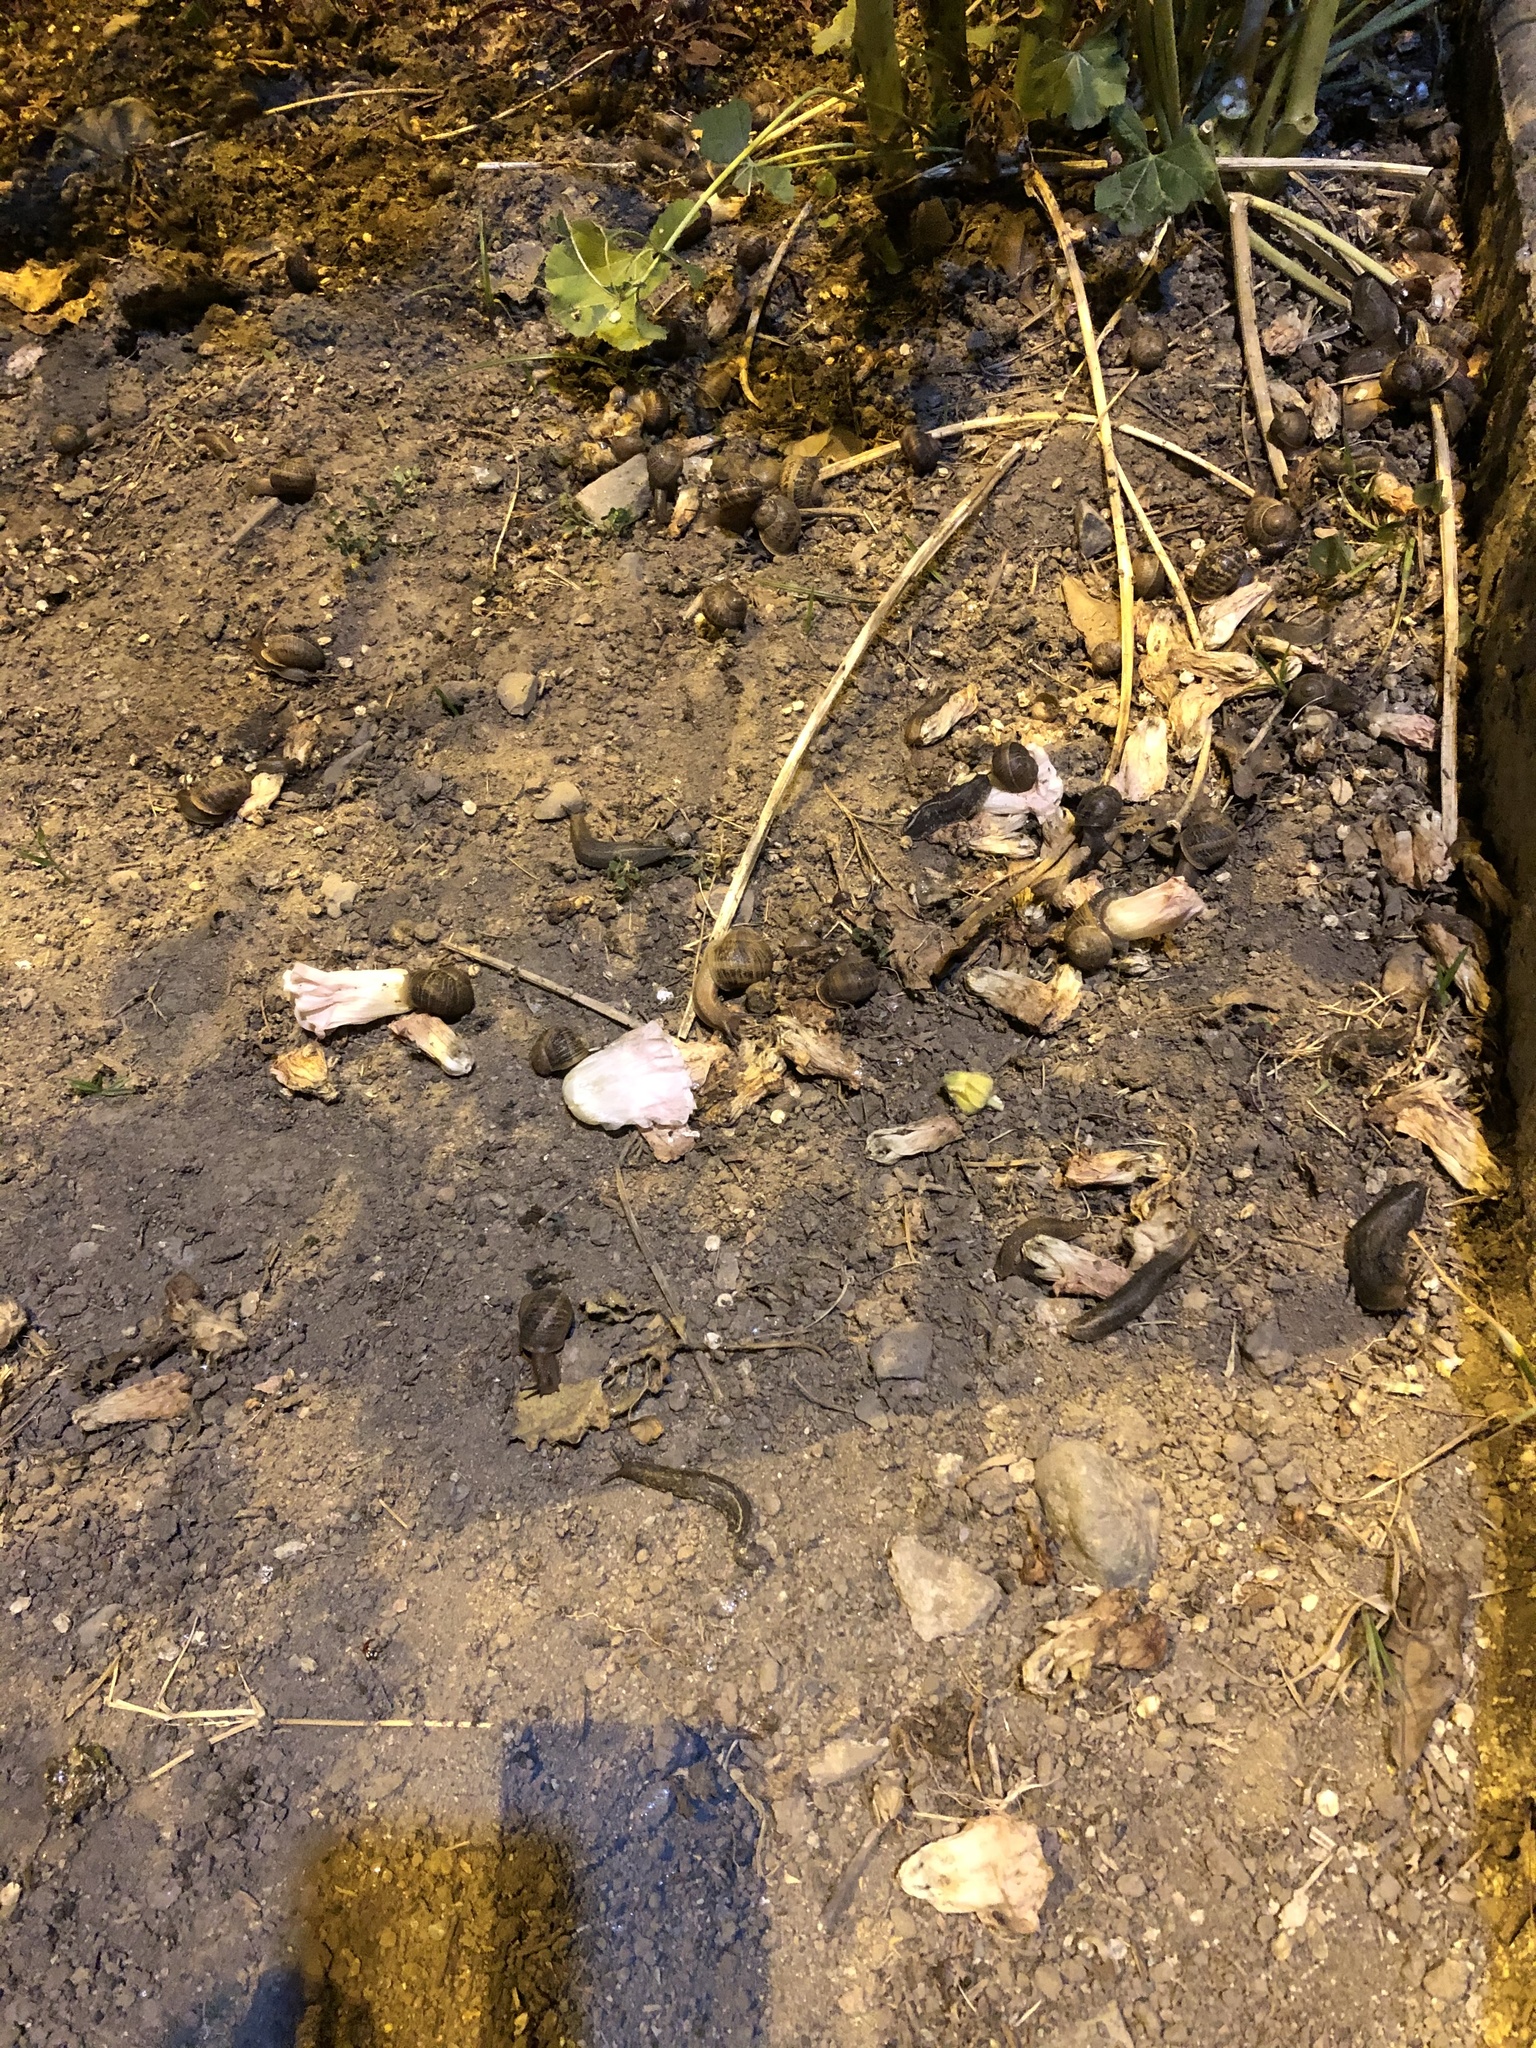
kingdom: Animalia
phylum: Mollusca
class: Gastropoda
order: Stylommatophora
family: Helicidae
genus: Cornu
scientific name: Cornu aspersum
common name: Brown garden snail
